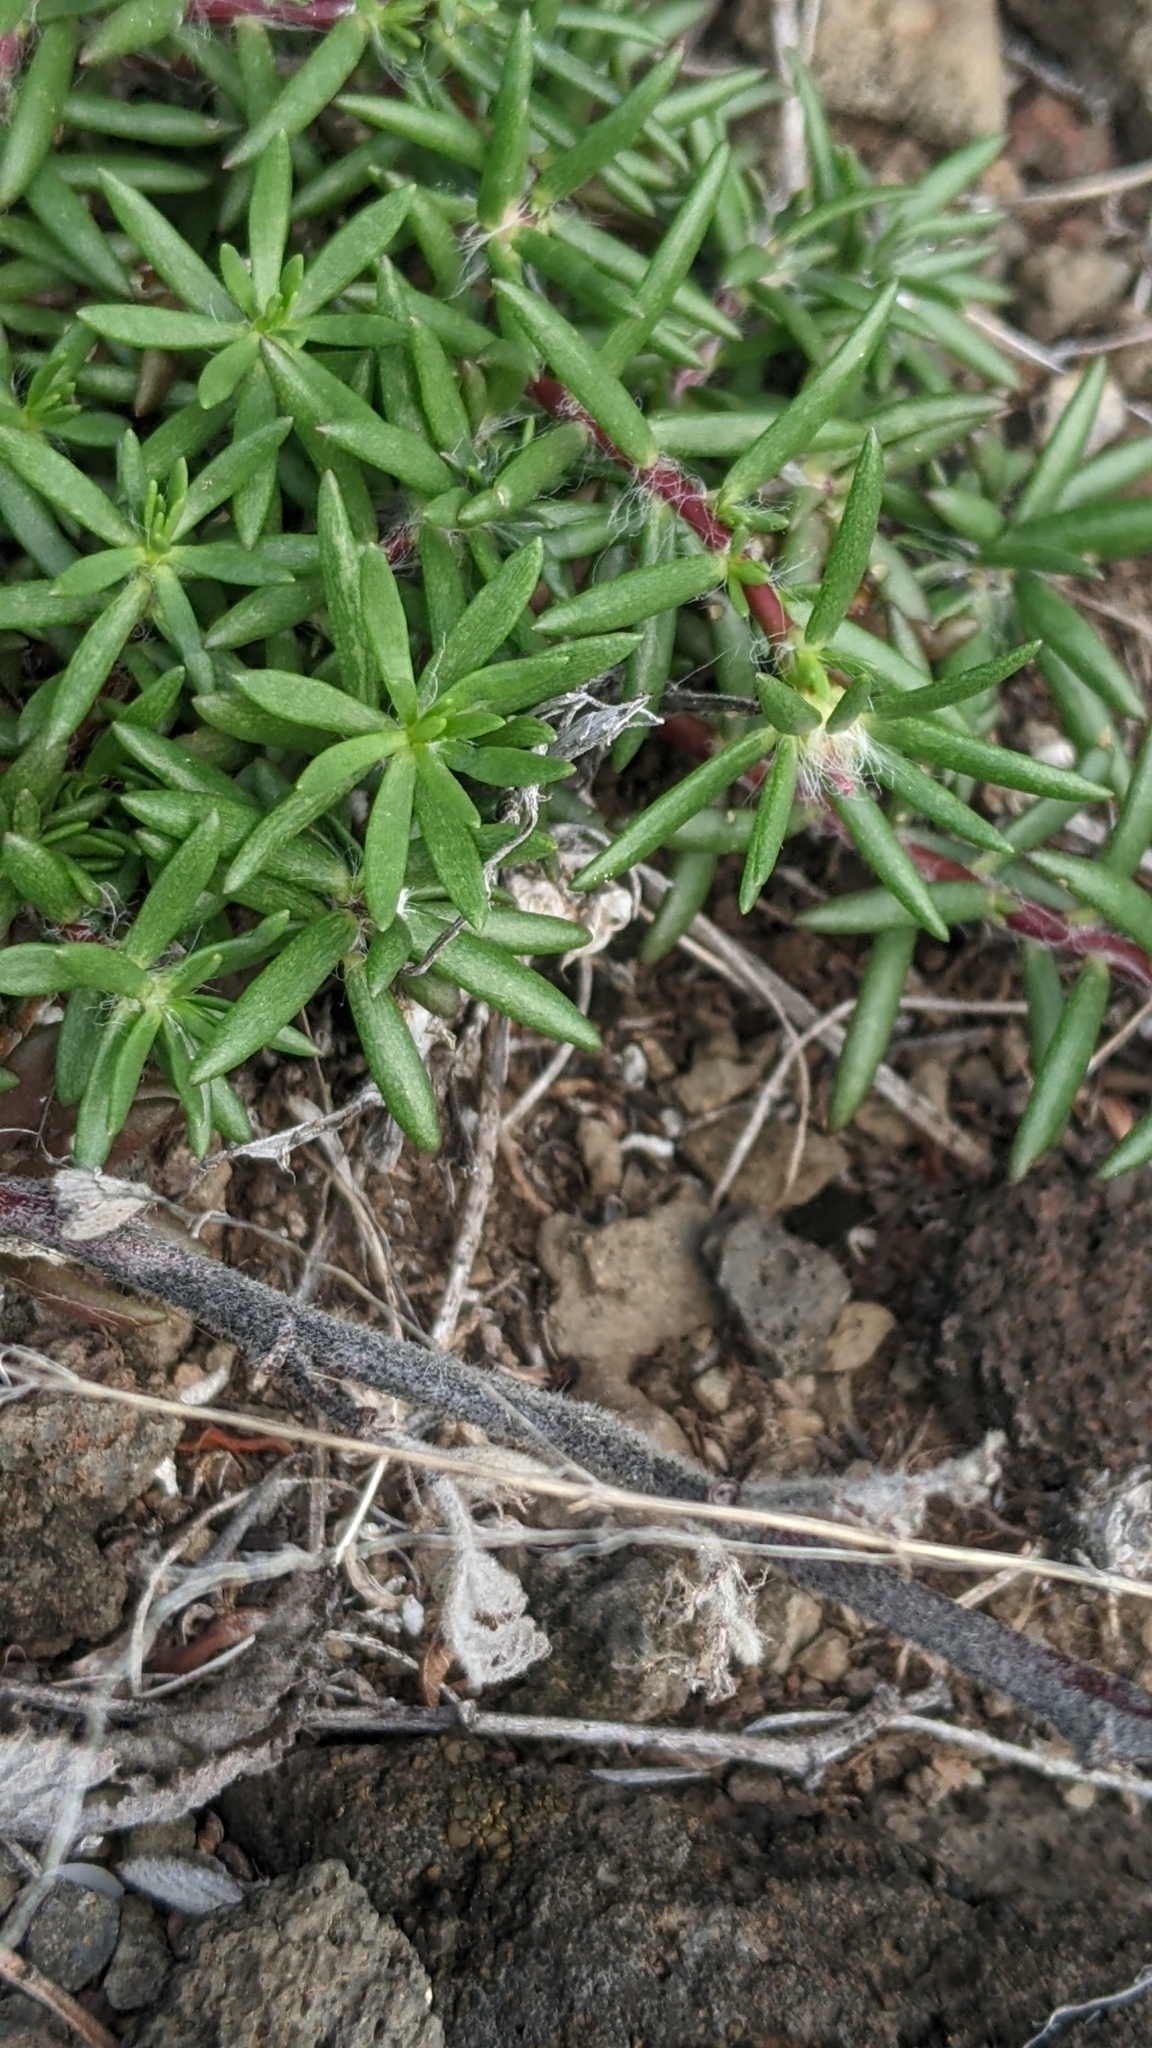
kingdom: Plantae
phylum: Tracheophyta
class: Magnoliopsida
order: Caryophyllales
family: Portulacaceae
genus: Portulaca
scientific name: Portulaca pilosa
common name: Kiss me quick
